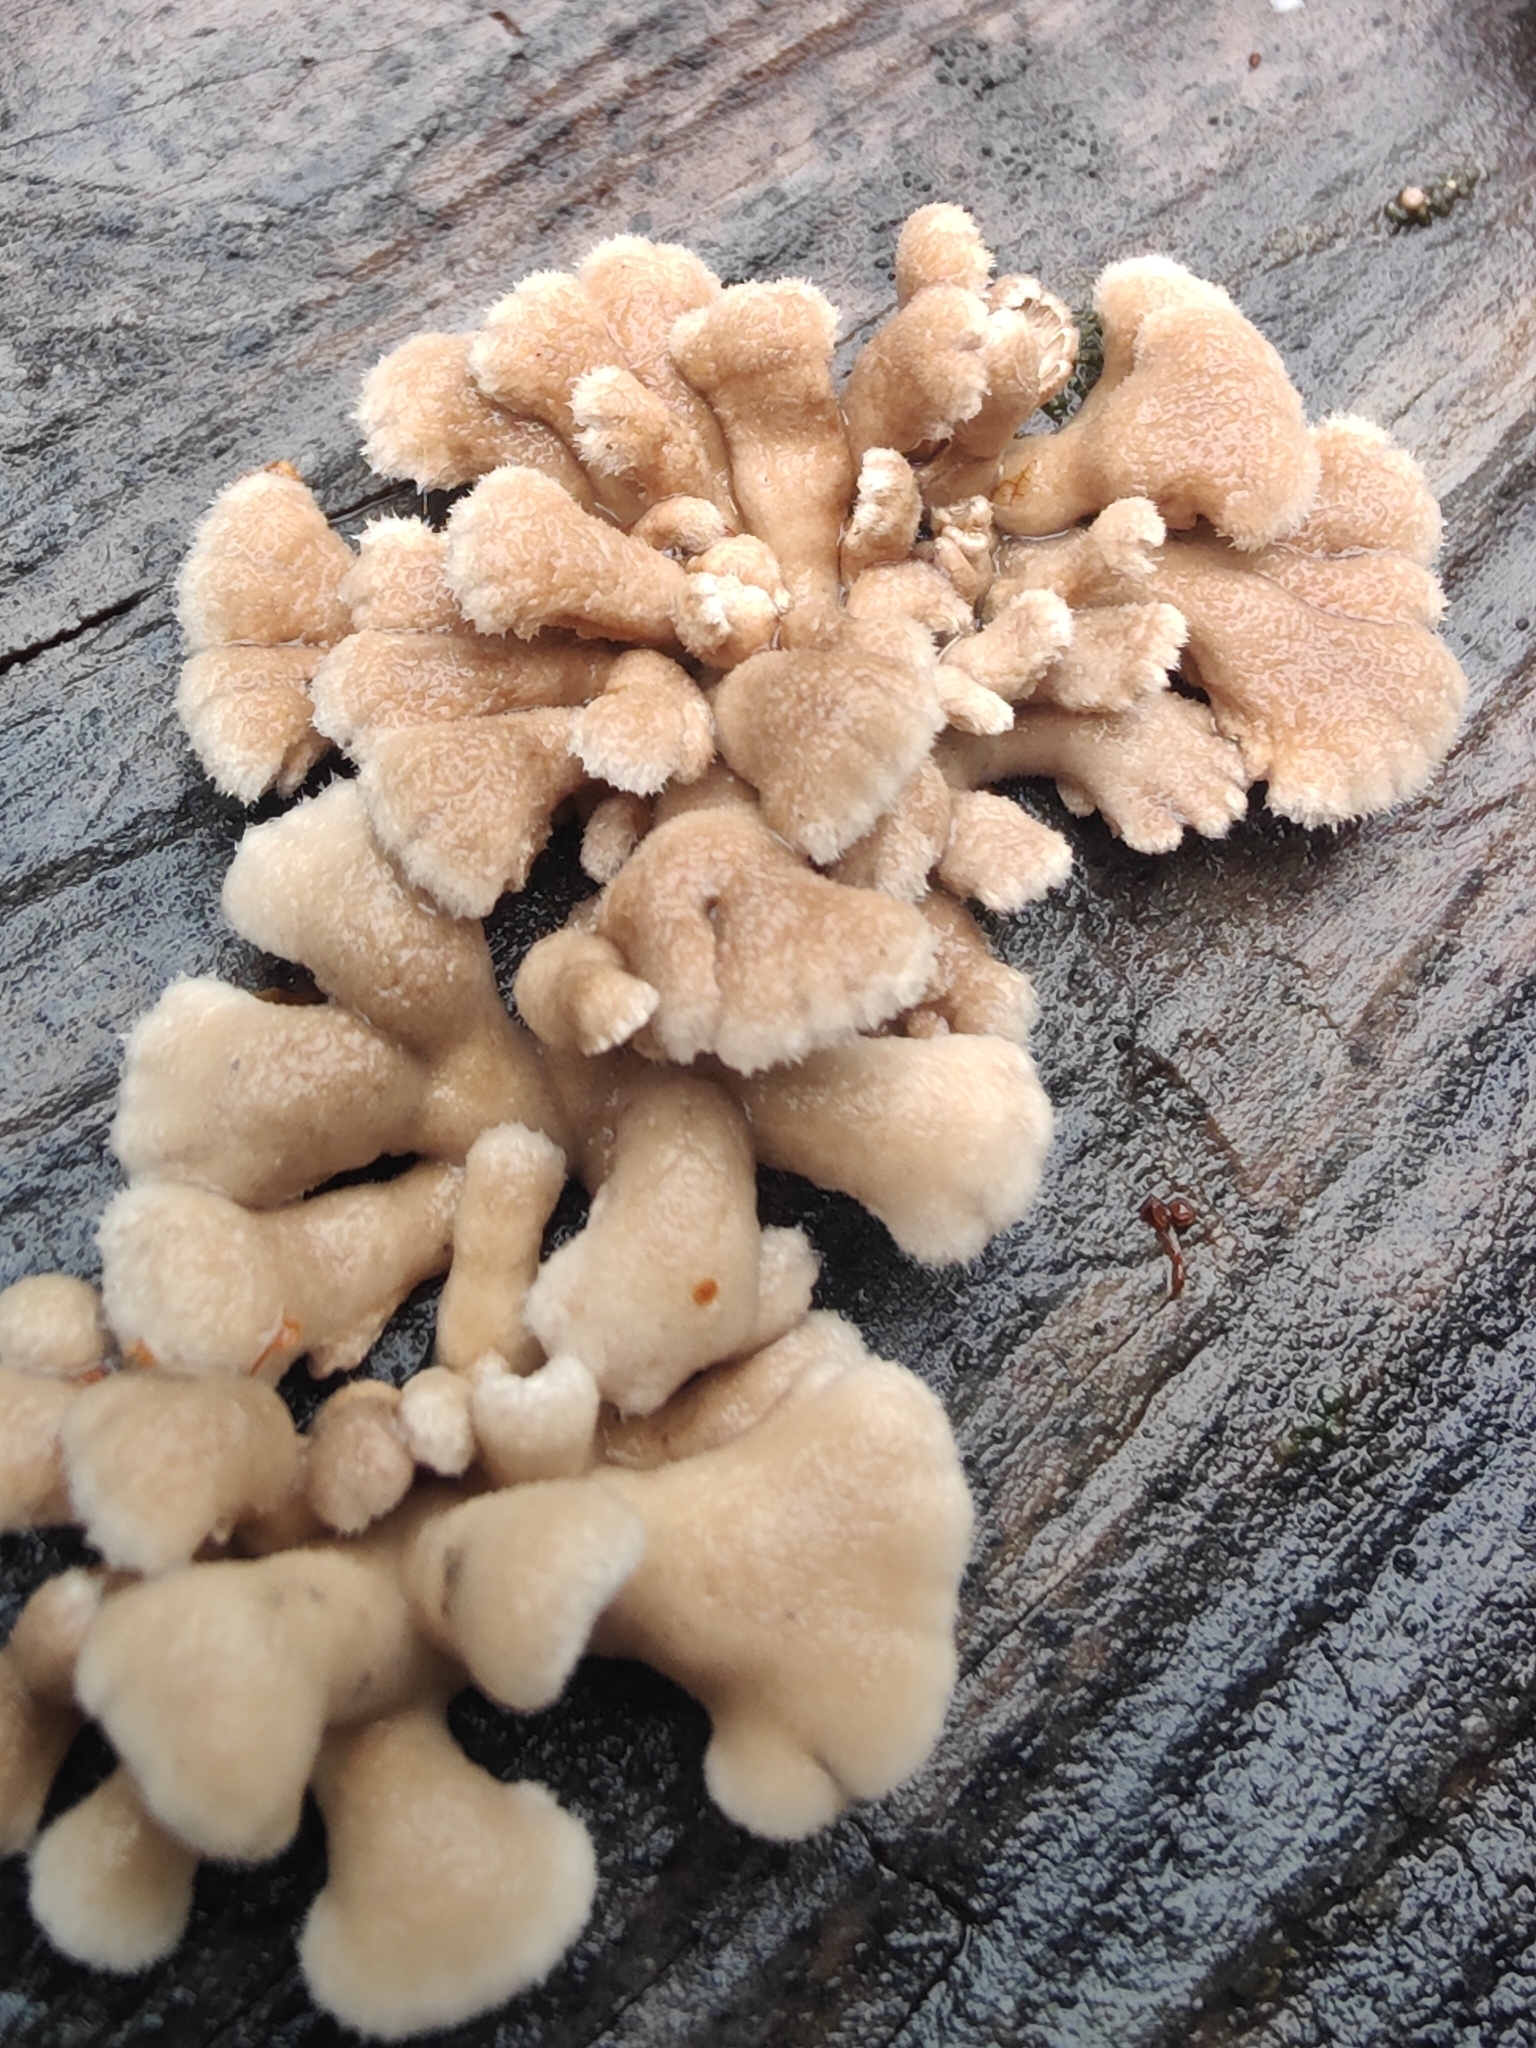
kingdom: Fungi
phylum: Basidiomycota
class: Agaricomycetes
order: Agaricales
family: Schizophyllaceae
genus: Schizophyllum
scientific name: Schizophyllum commune
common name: Common porecrust
